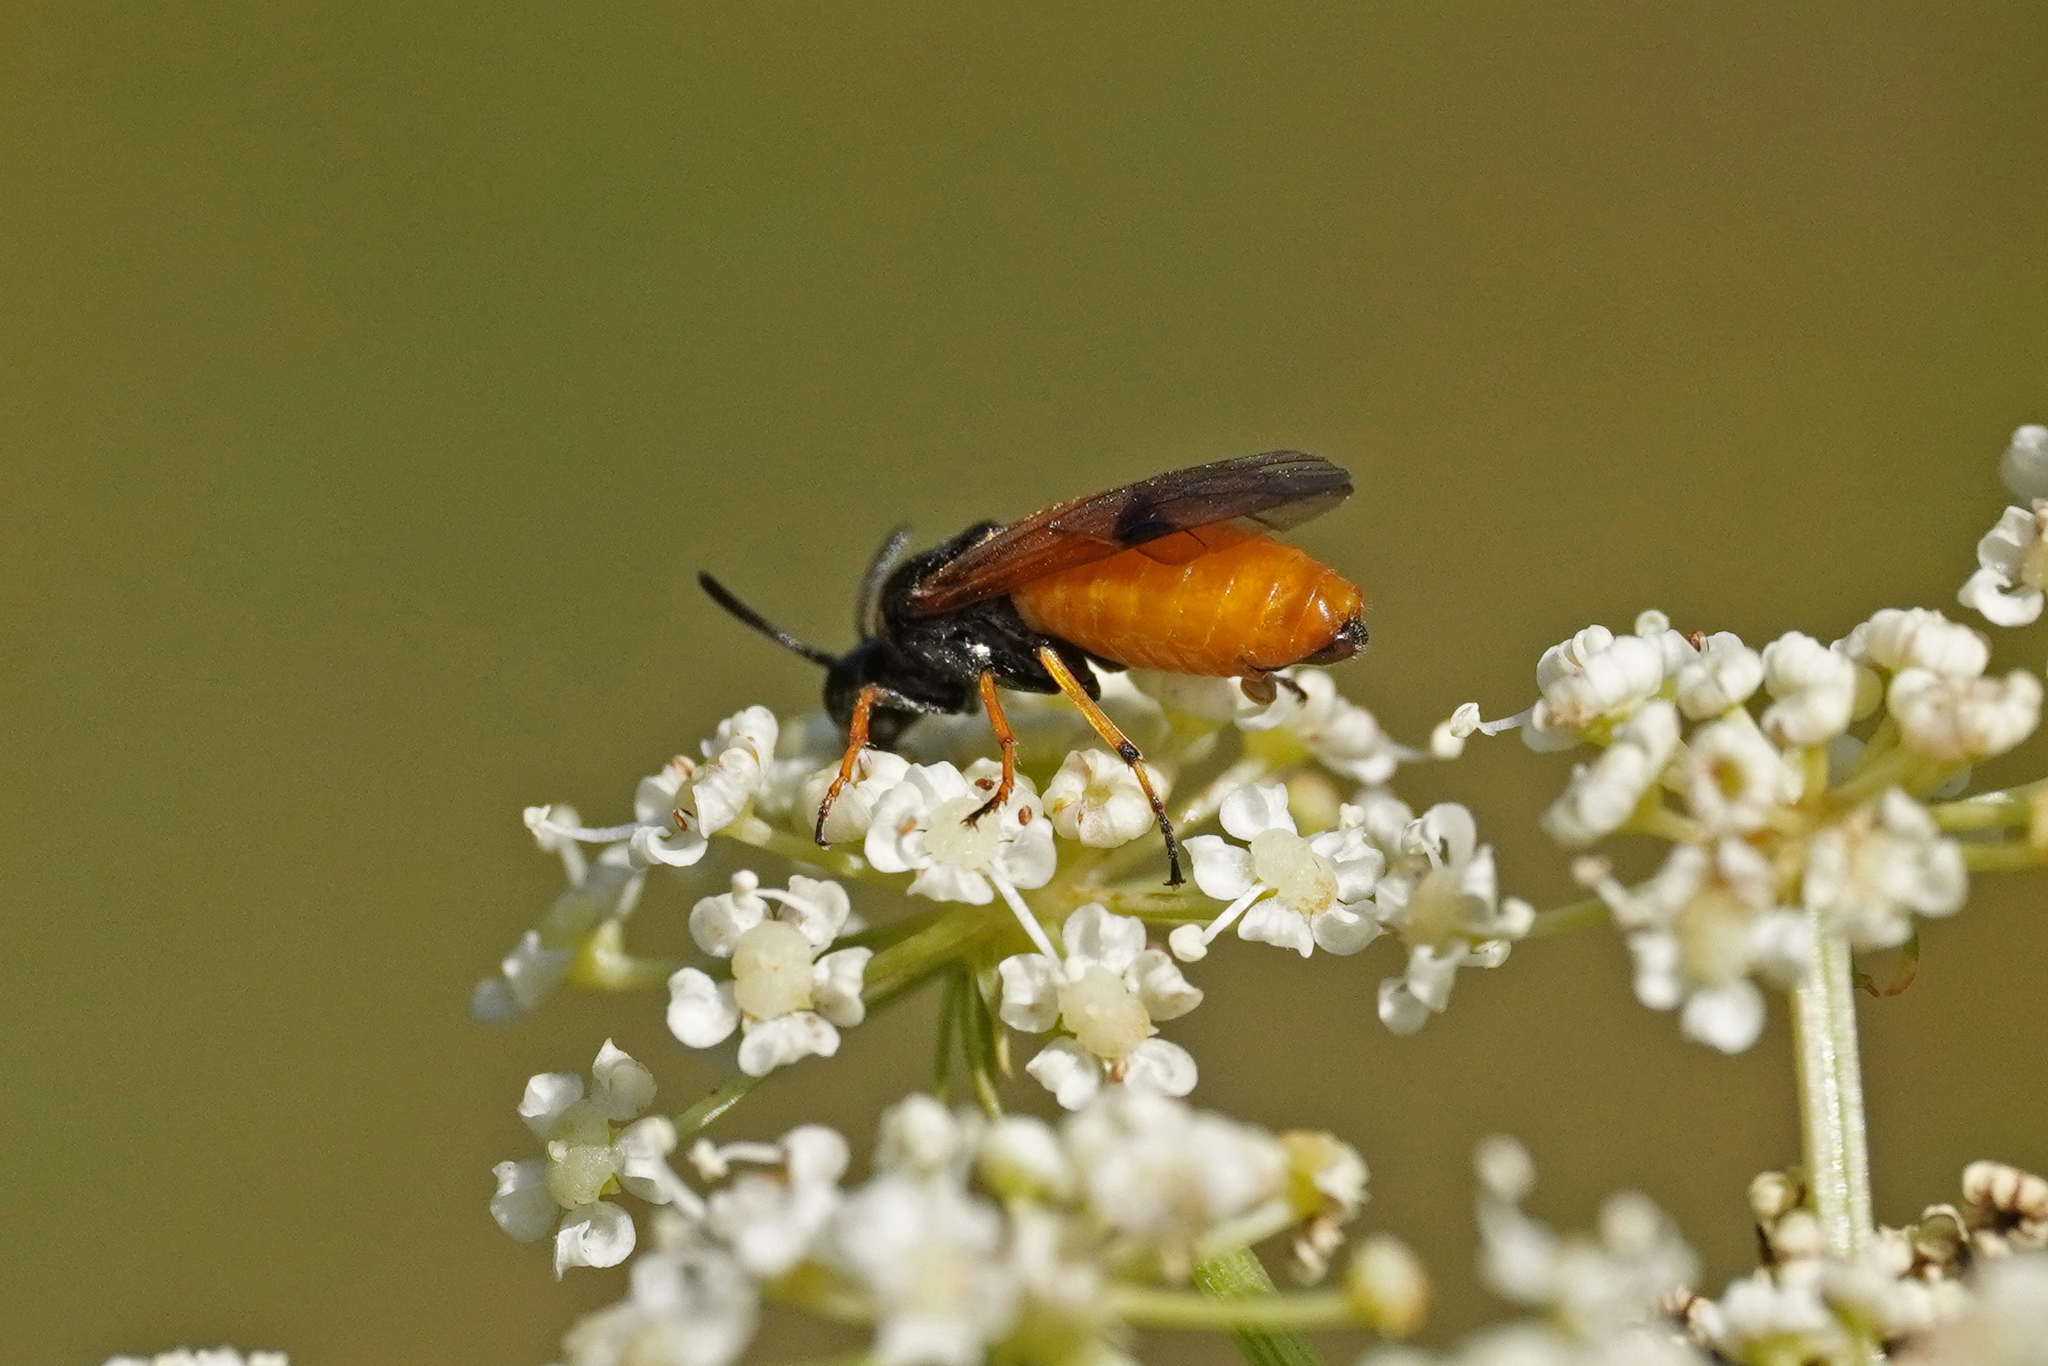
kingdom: Animalia
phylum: Arthropoda
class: Insecta
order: Hymenoptera
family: Argidae
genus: Arge
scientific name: Arge melanochra
